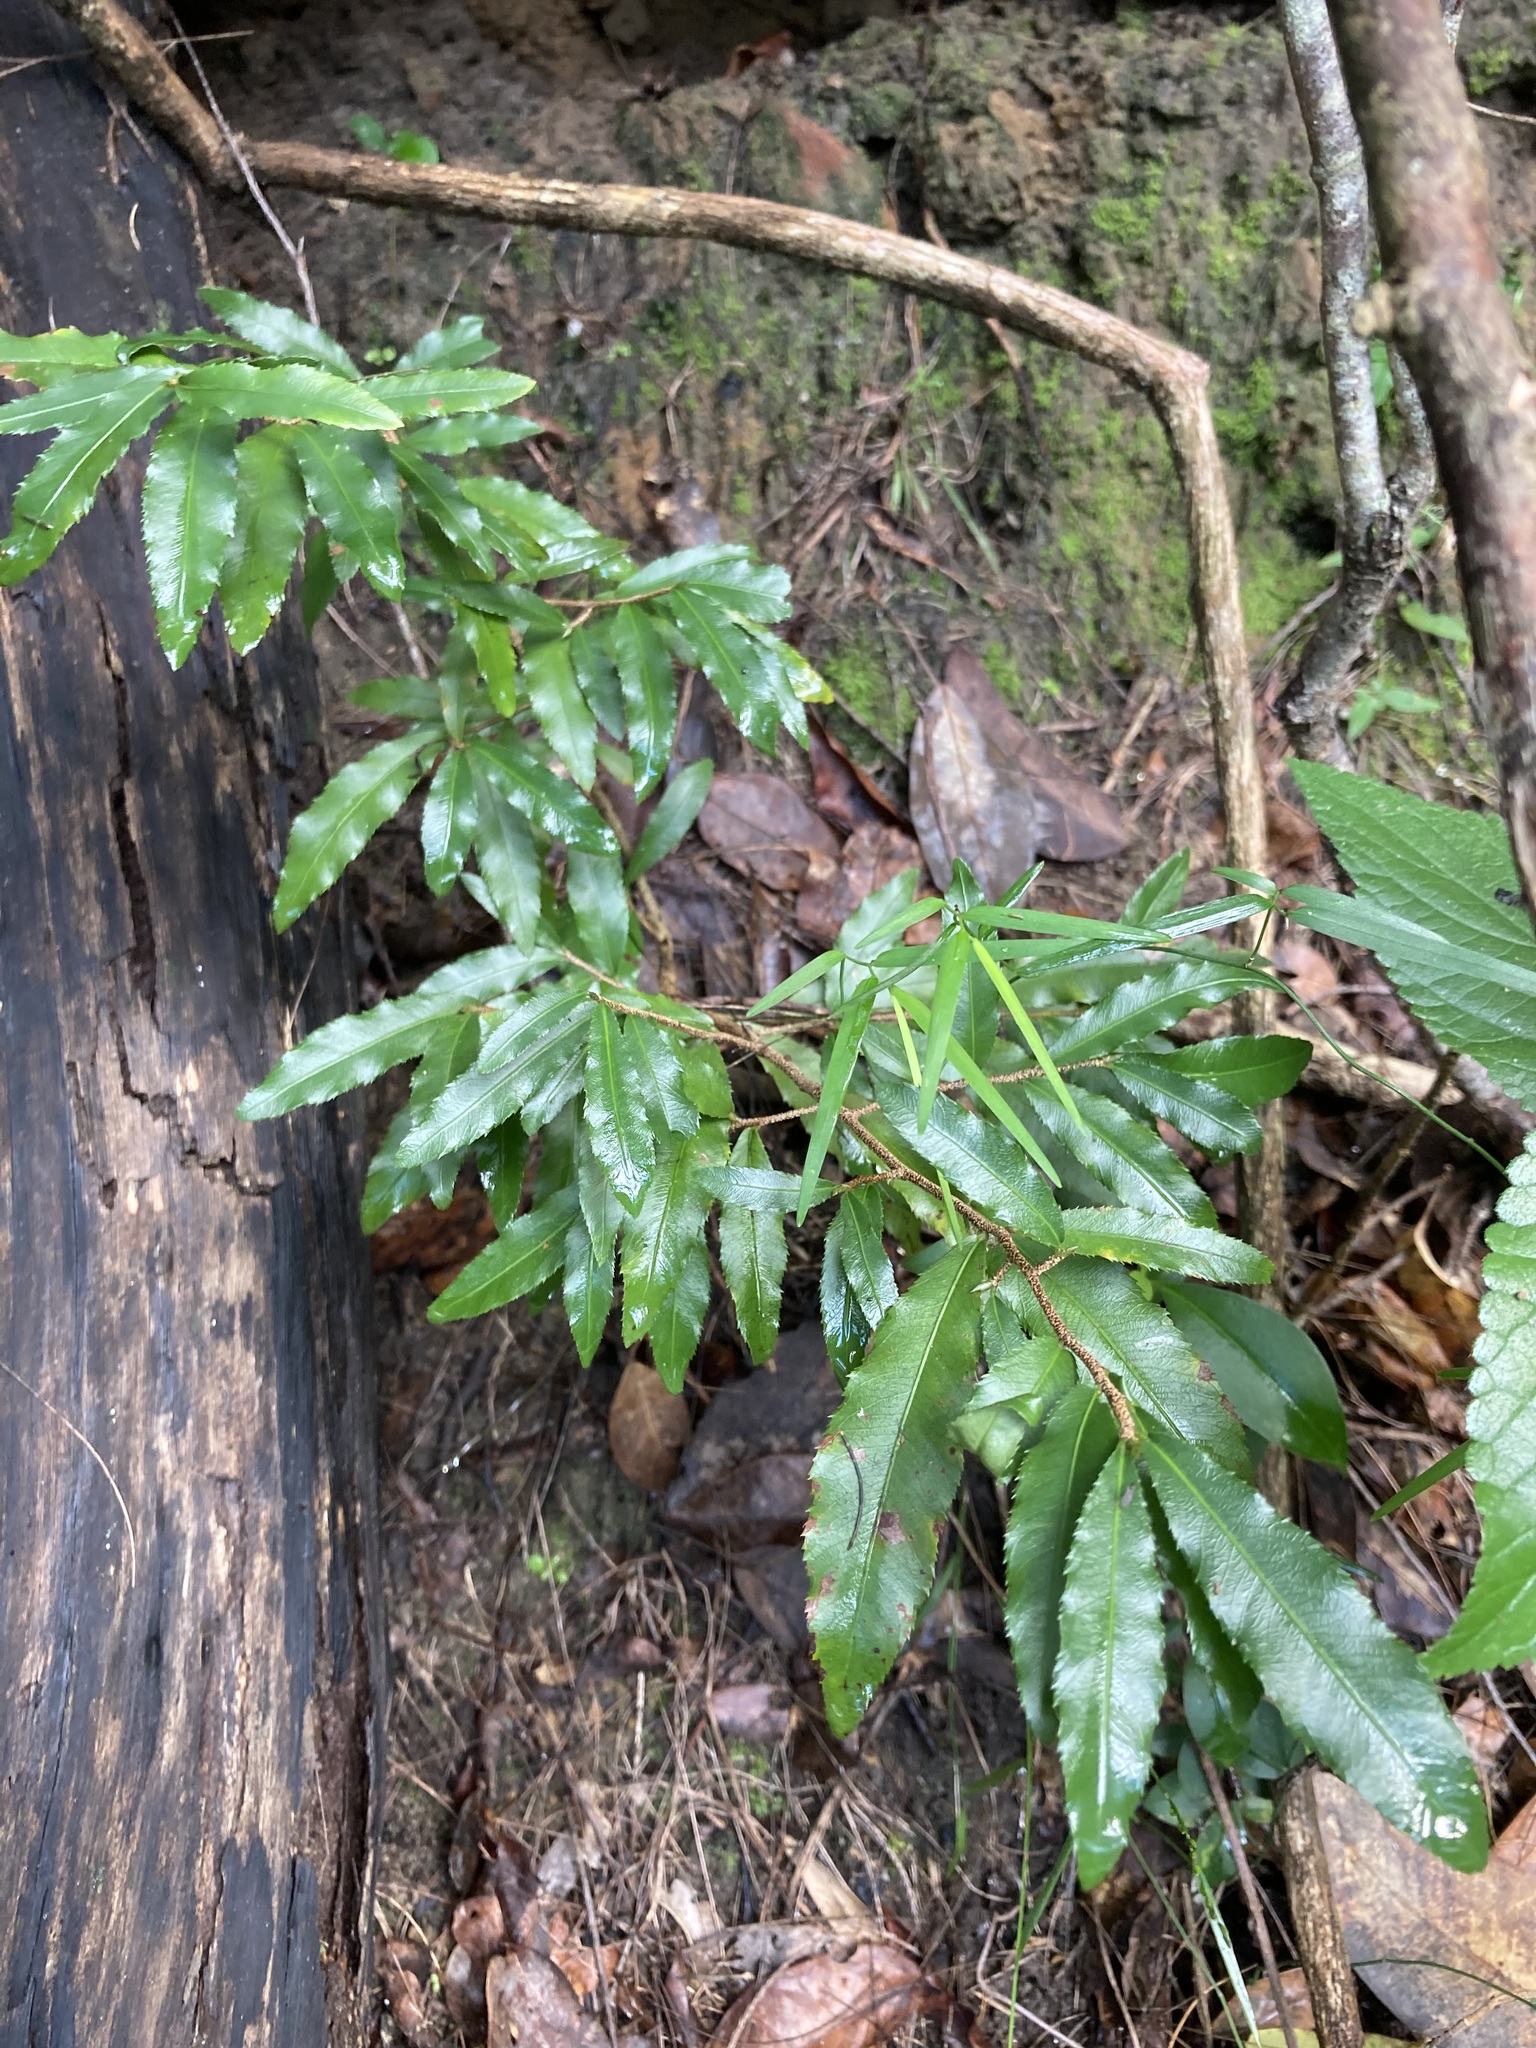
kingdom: Plantae
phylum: Tracheophyta
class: Magnoliopsida
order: Malpighiales
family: Ochnaceae
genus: Ochna
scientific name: Ochna serrulata
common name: Mickey mouse plant
